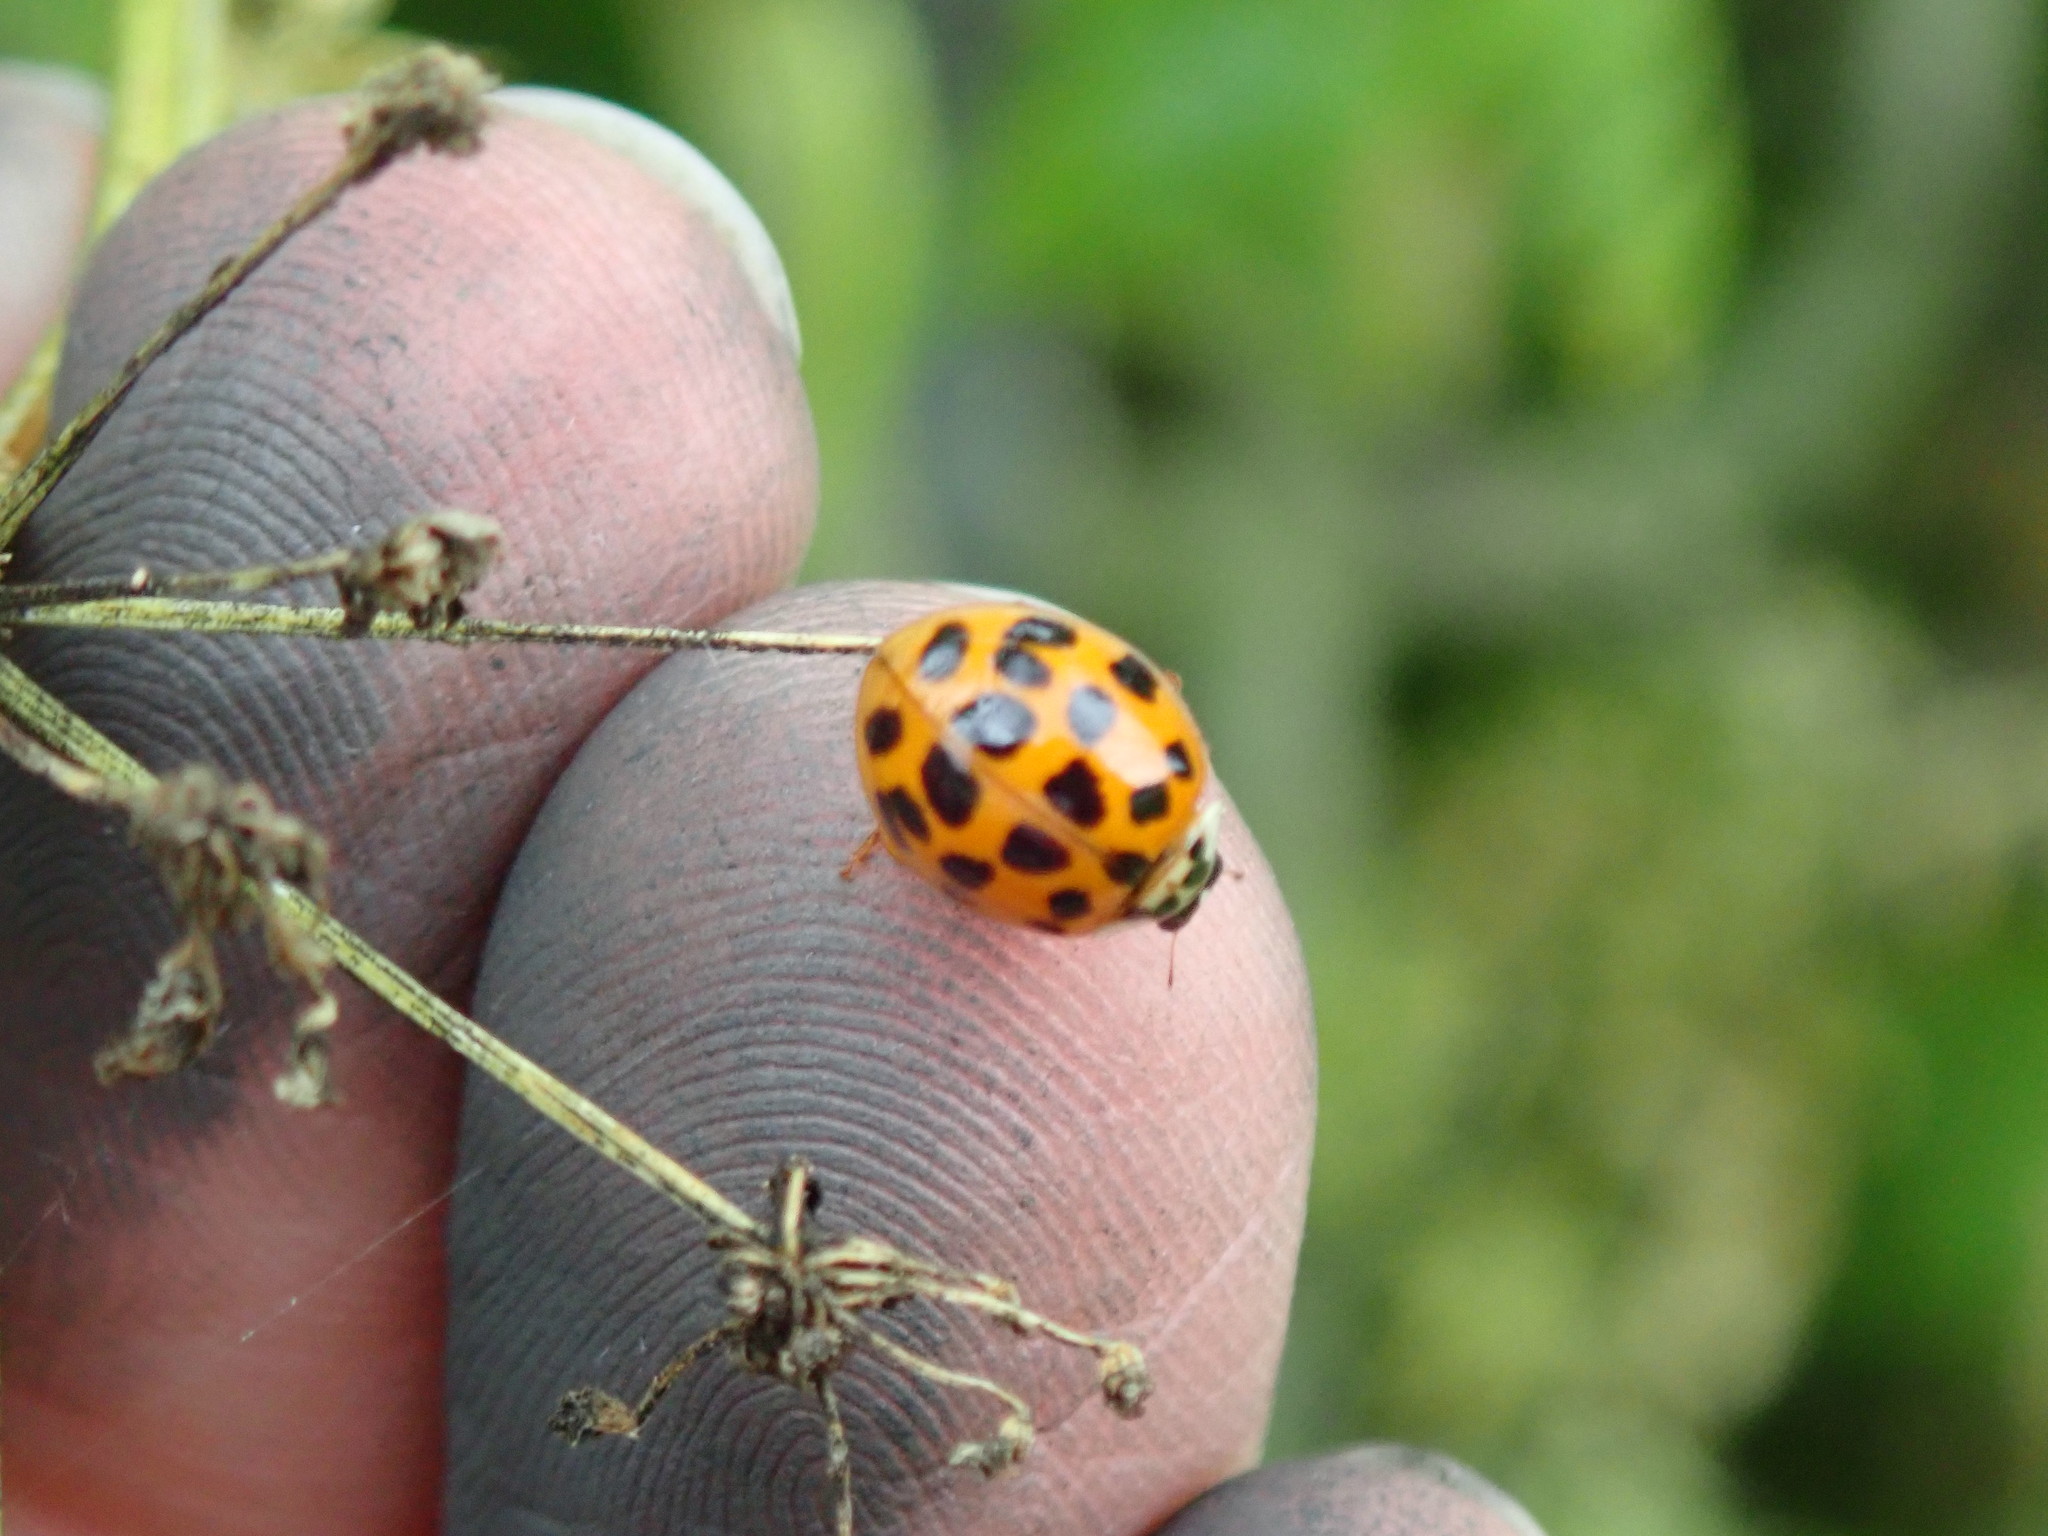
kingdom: Animalia
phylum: Arthropoda
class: Insecta
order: Coleoptera
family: Coccinellidae
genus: Harmonia
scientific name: Harmonia axyridis
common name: Harlequin ladybird
